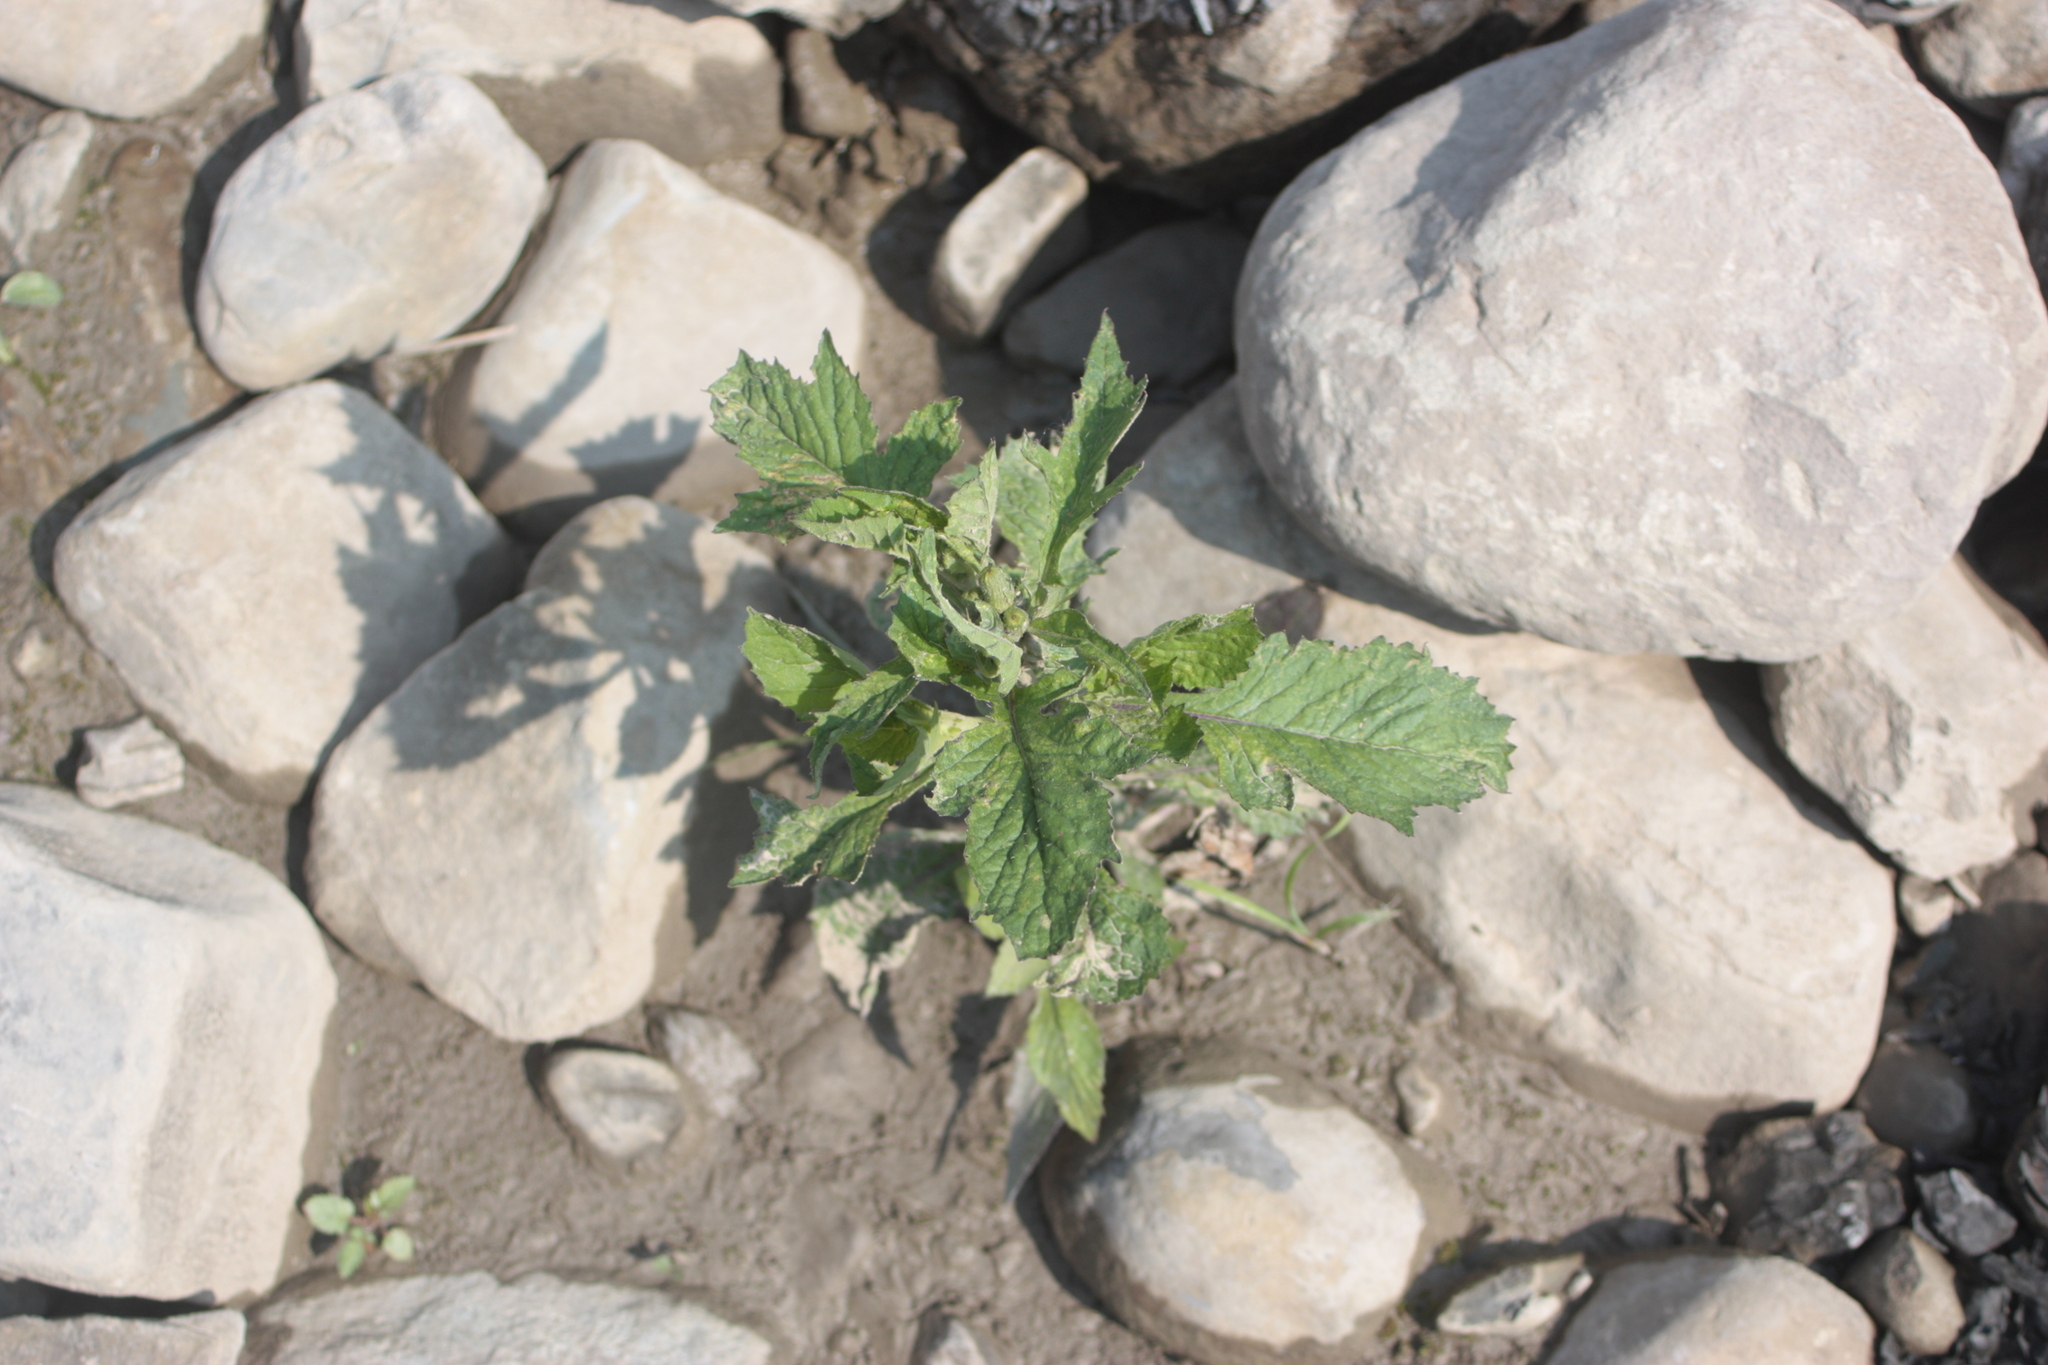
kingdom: Plantae
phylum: Tracheophyta
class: Magnoliopsida
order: Asterales
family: Asteraceae
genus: Crassocephalum
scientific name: Crassocephalum crepidioides
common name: Redflower ragleaf
